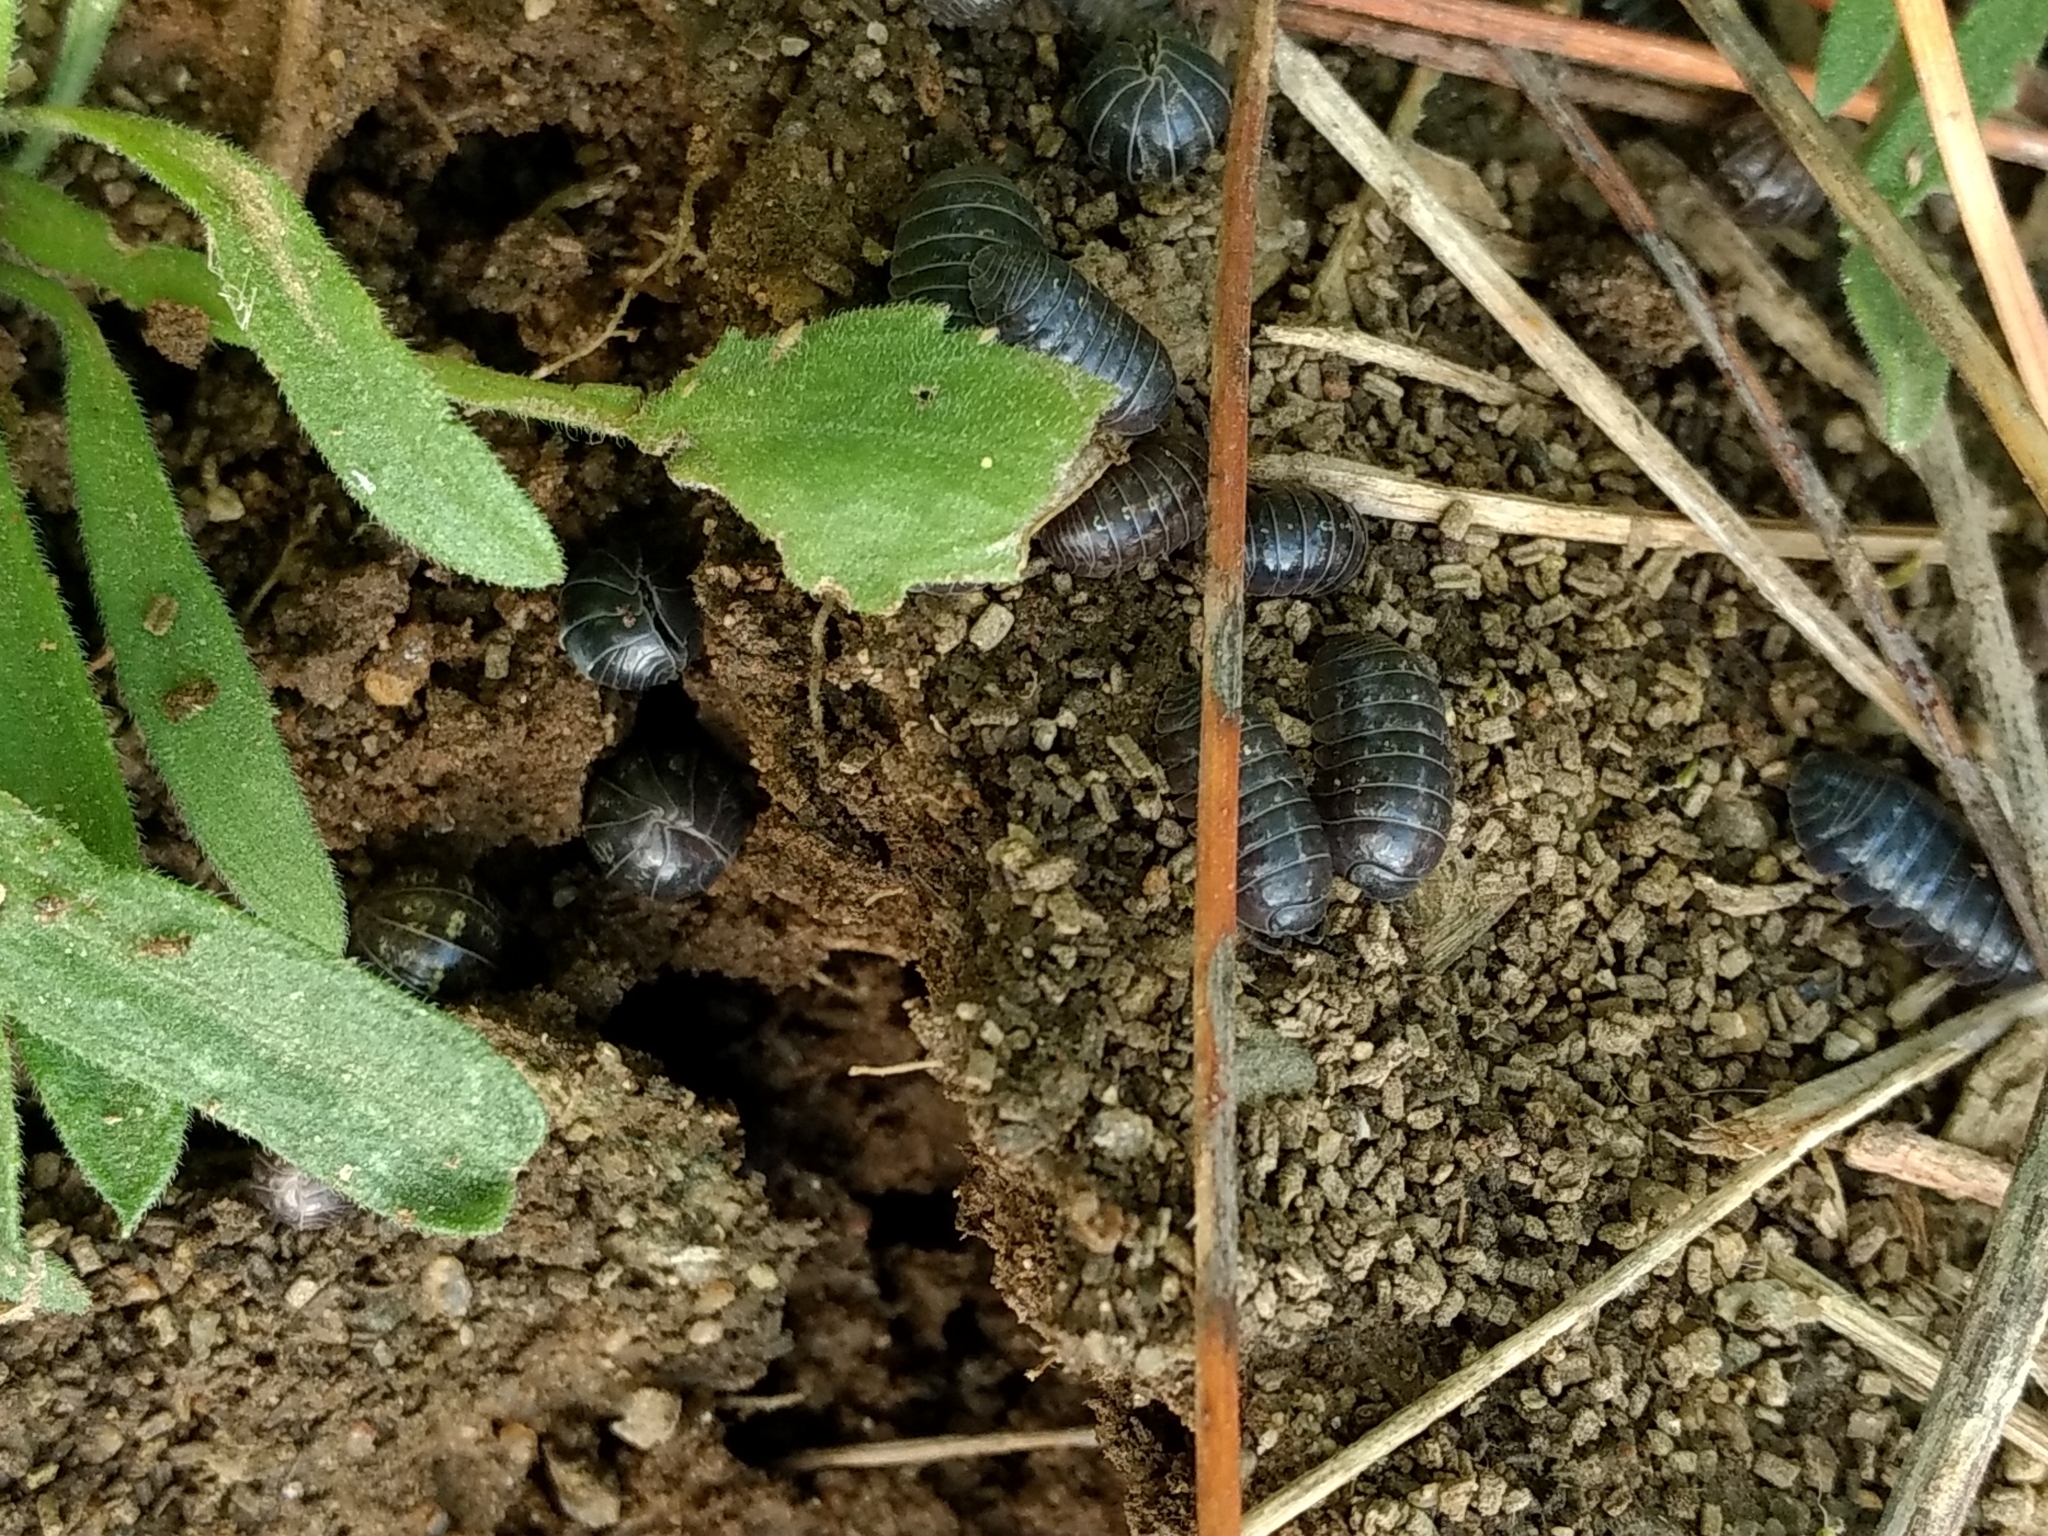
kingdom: Animalia
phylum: Arthropoda
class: Malacostraca
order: Isopoda
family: Armadillidiidae
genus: Armadillidium
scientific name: Armadillidium vulgare
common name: Common pill woodlouse
